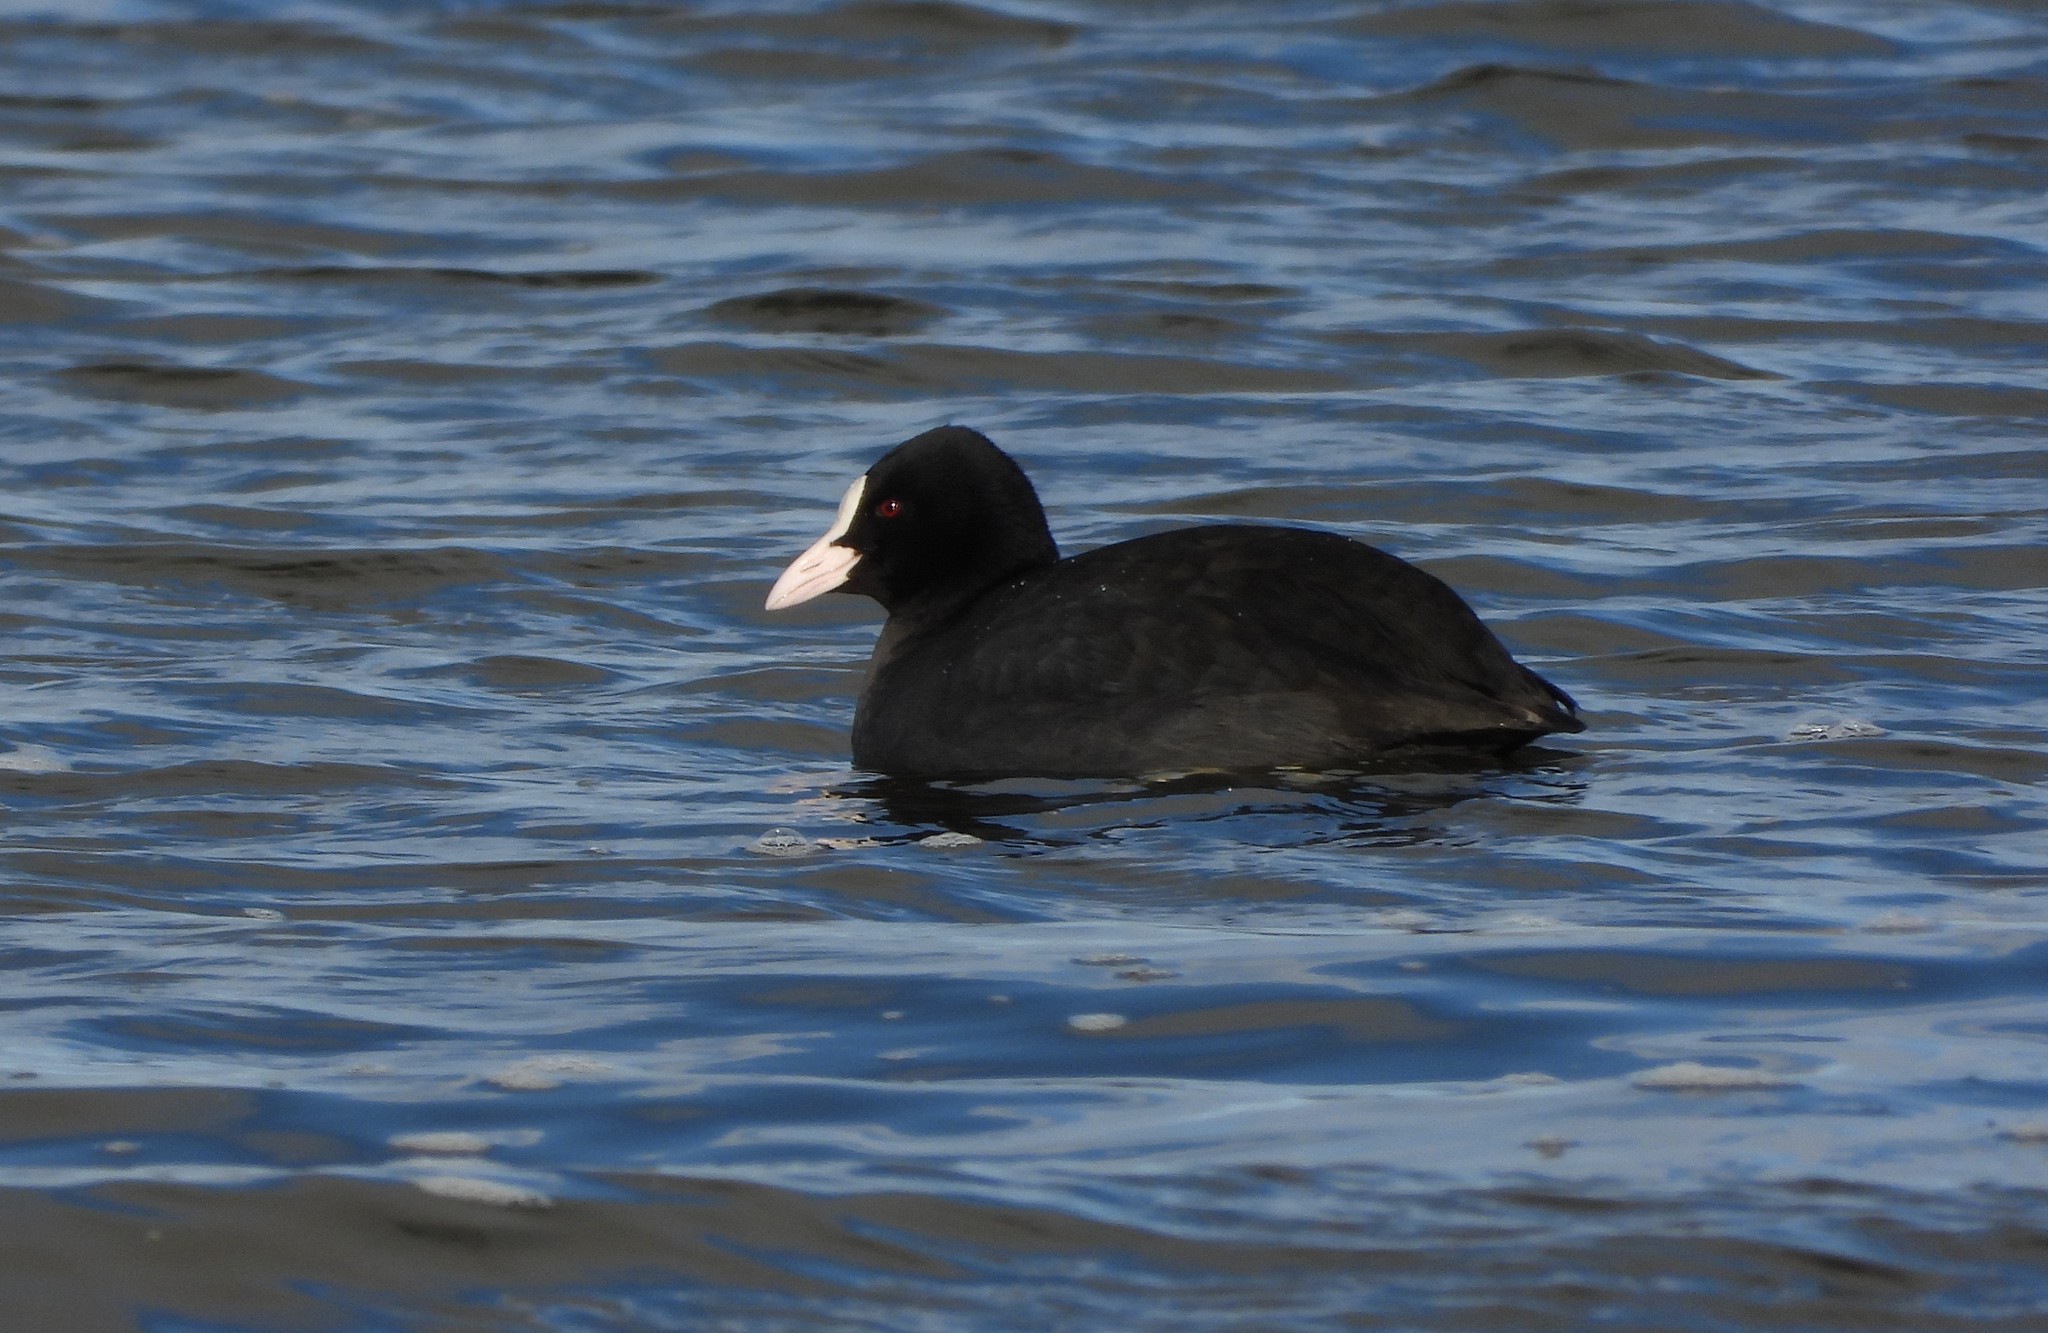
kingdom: Animalia
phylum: Chordata
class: Aves
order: Gruiformes
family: Rallidae
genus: Fulica
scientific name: Fulica atra
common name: Eurasian coot
